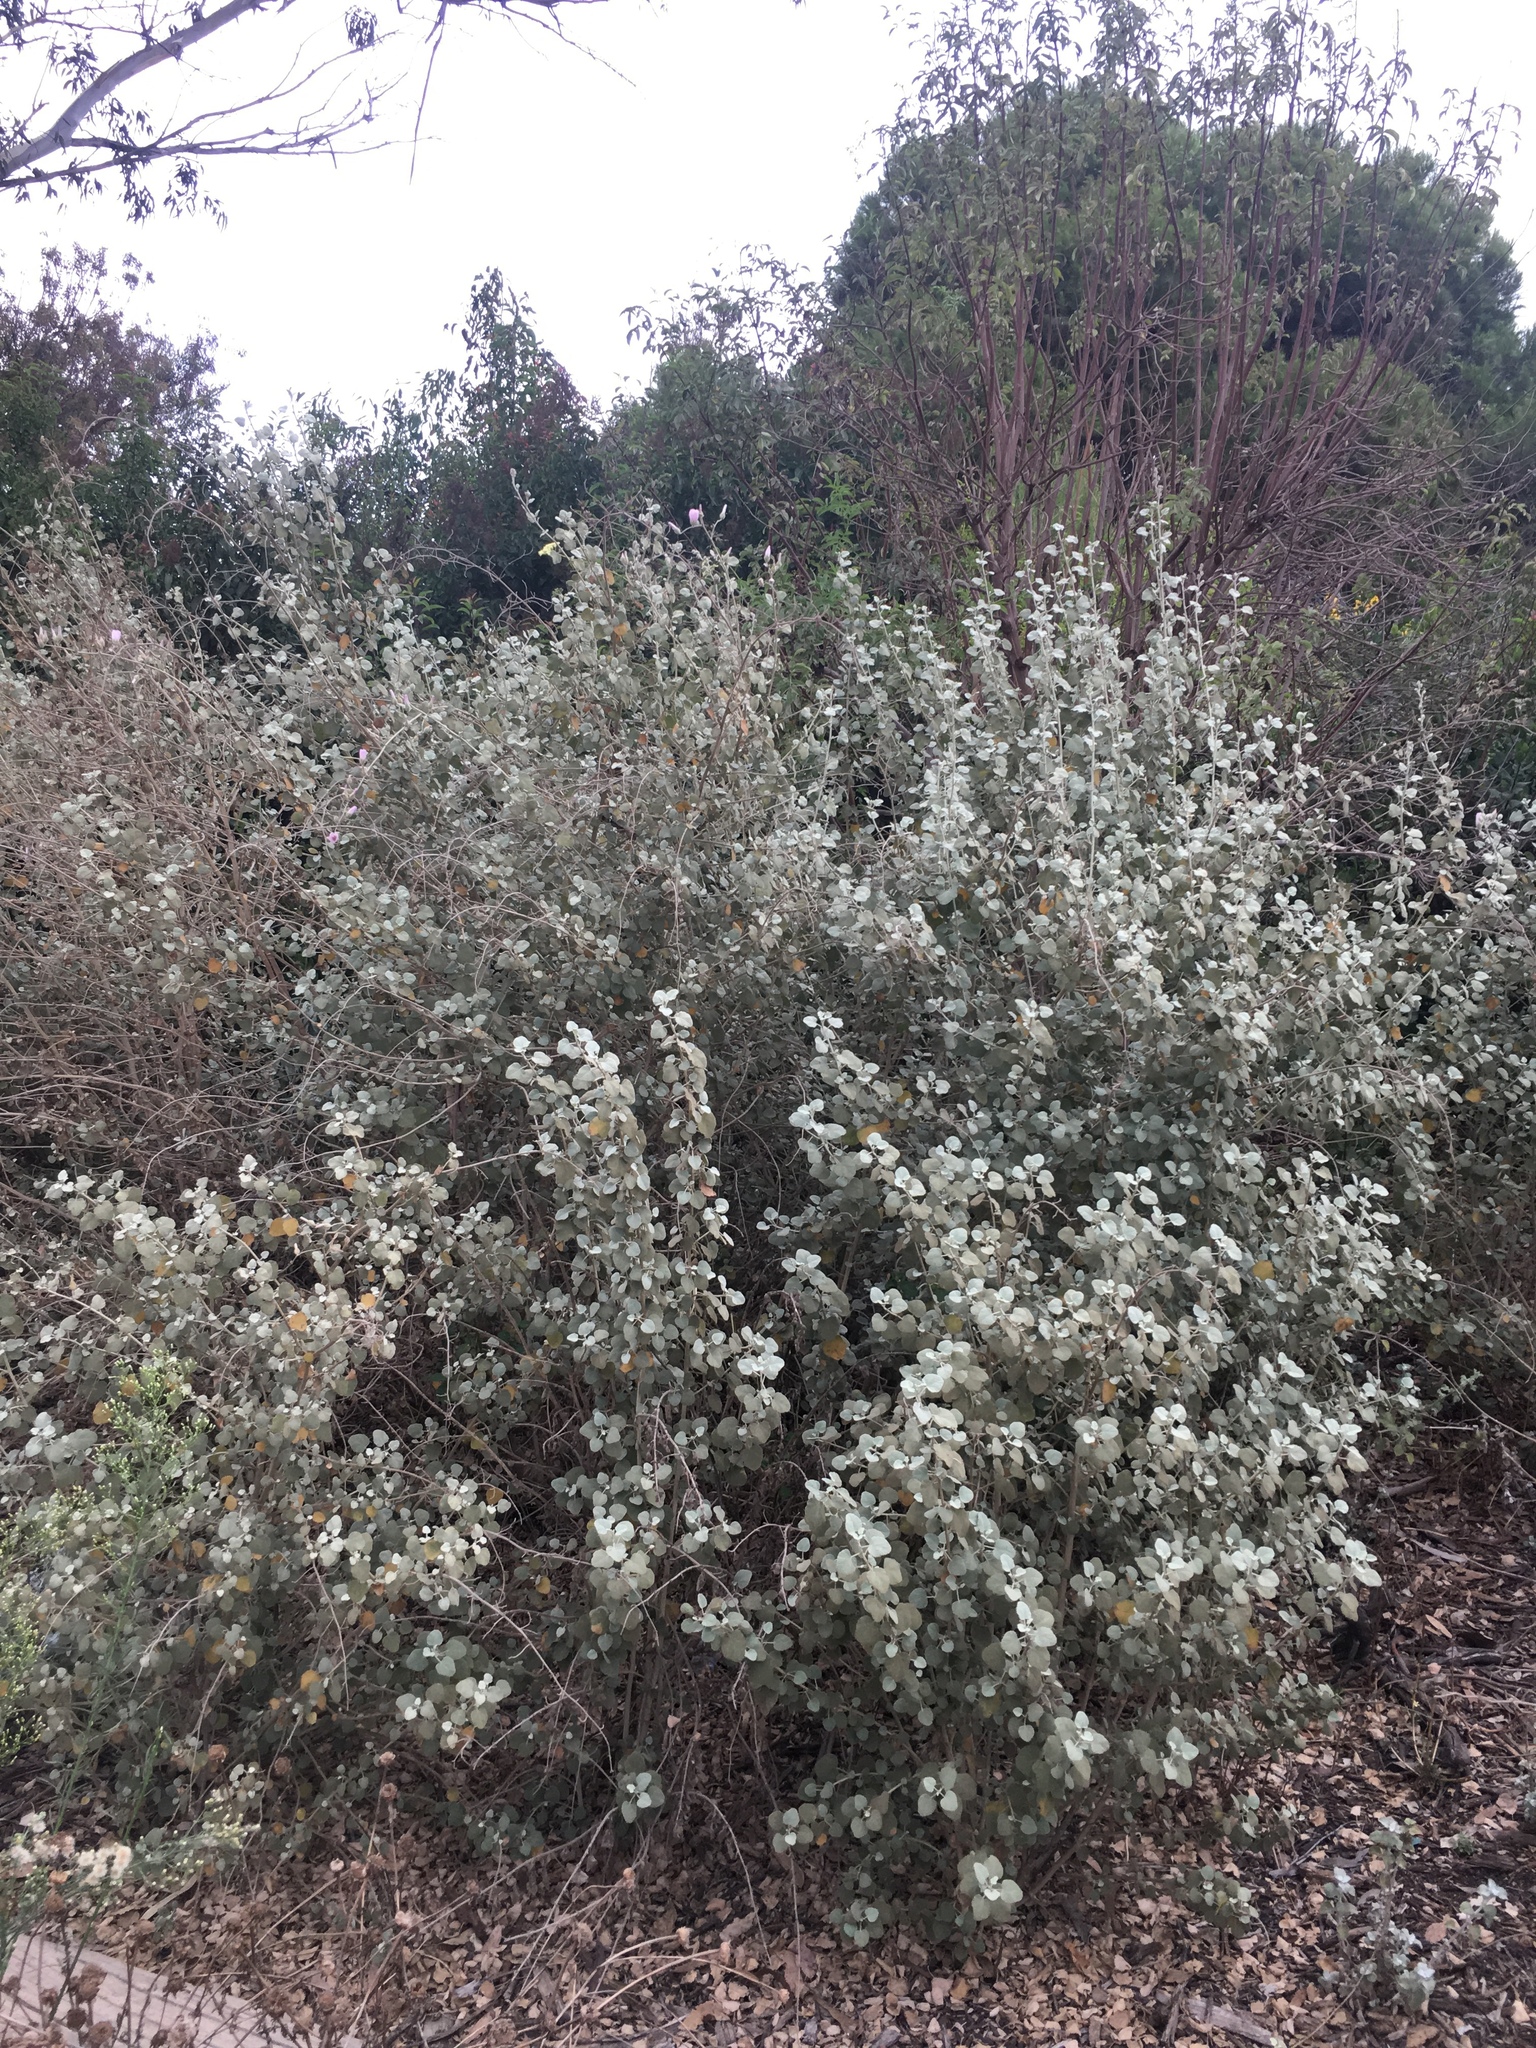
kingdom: Plantae
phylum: Tracheophyta
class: Magnoliopsida
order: Malvales
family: Malvaceae
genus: Malacothamnus
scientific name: Malacothamnus jonesii
